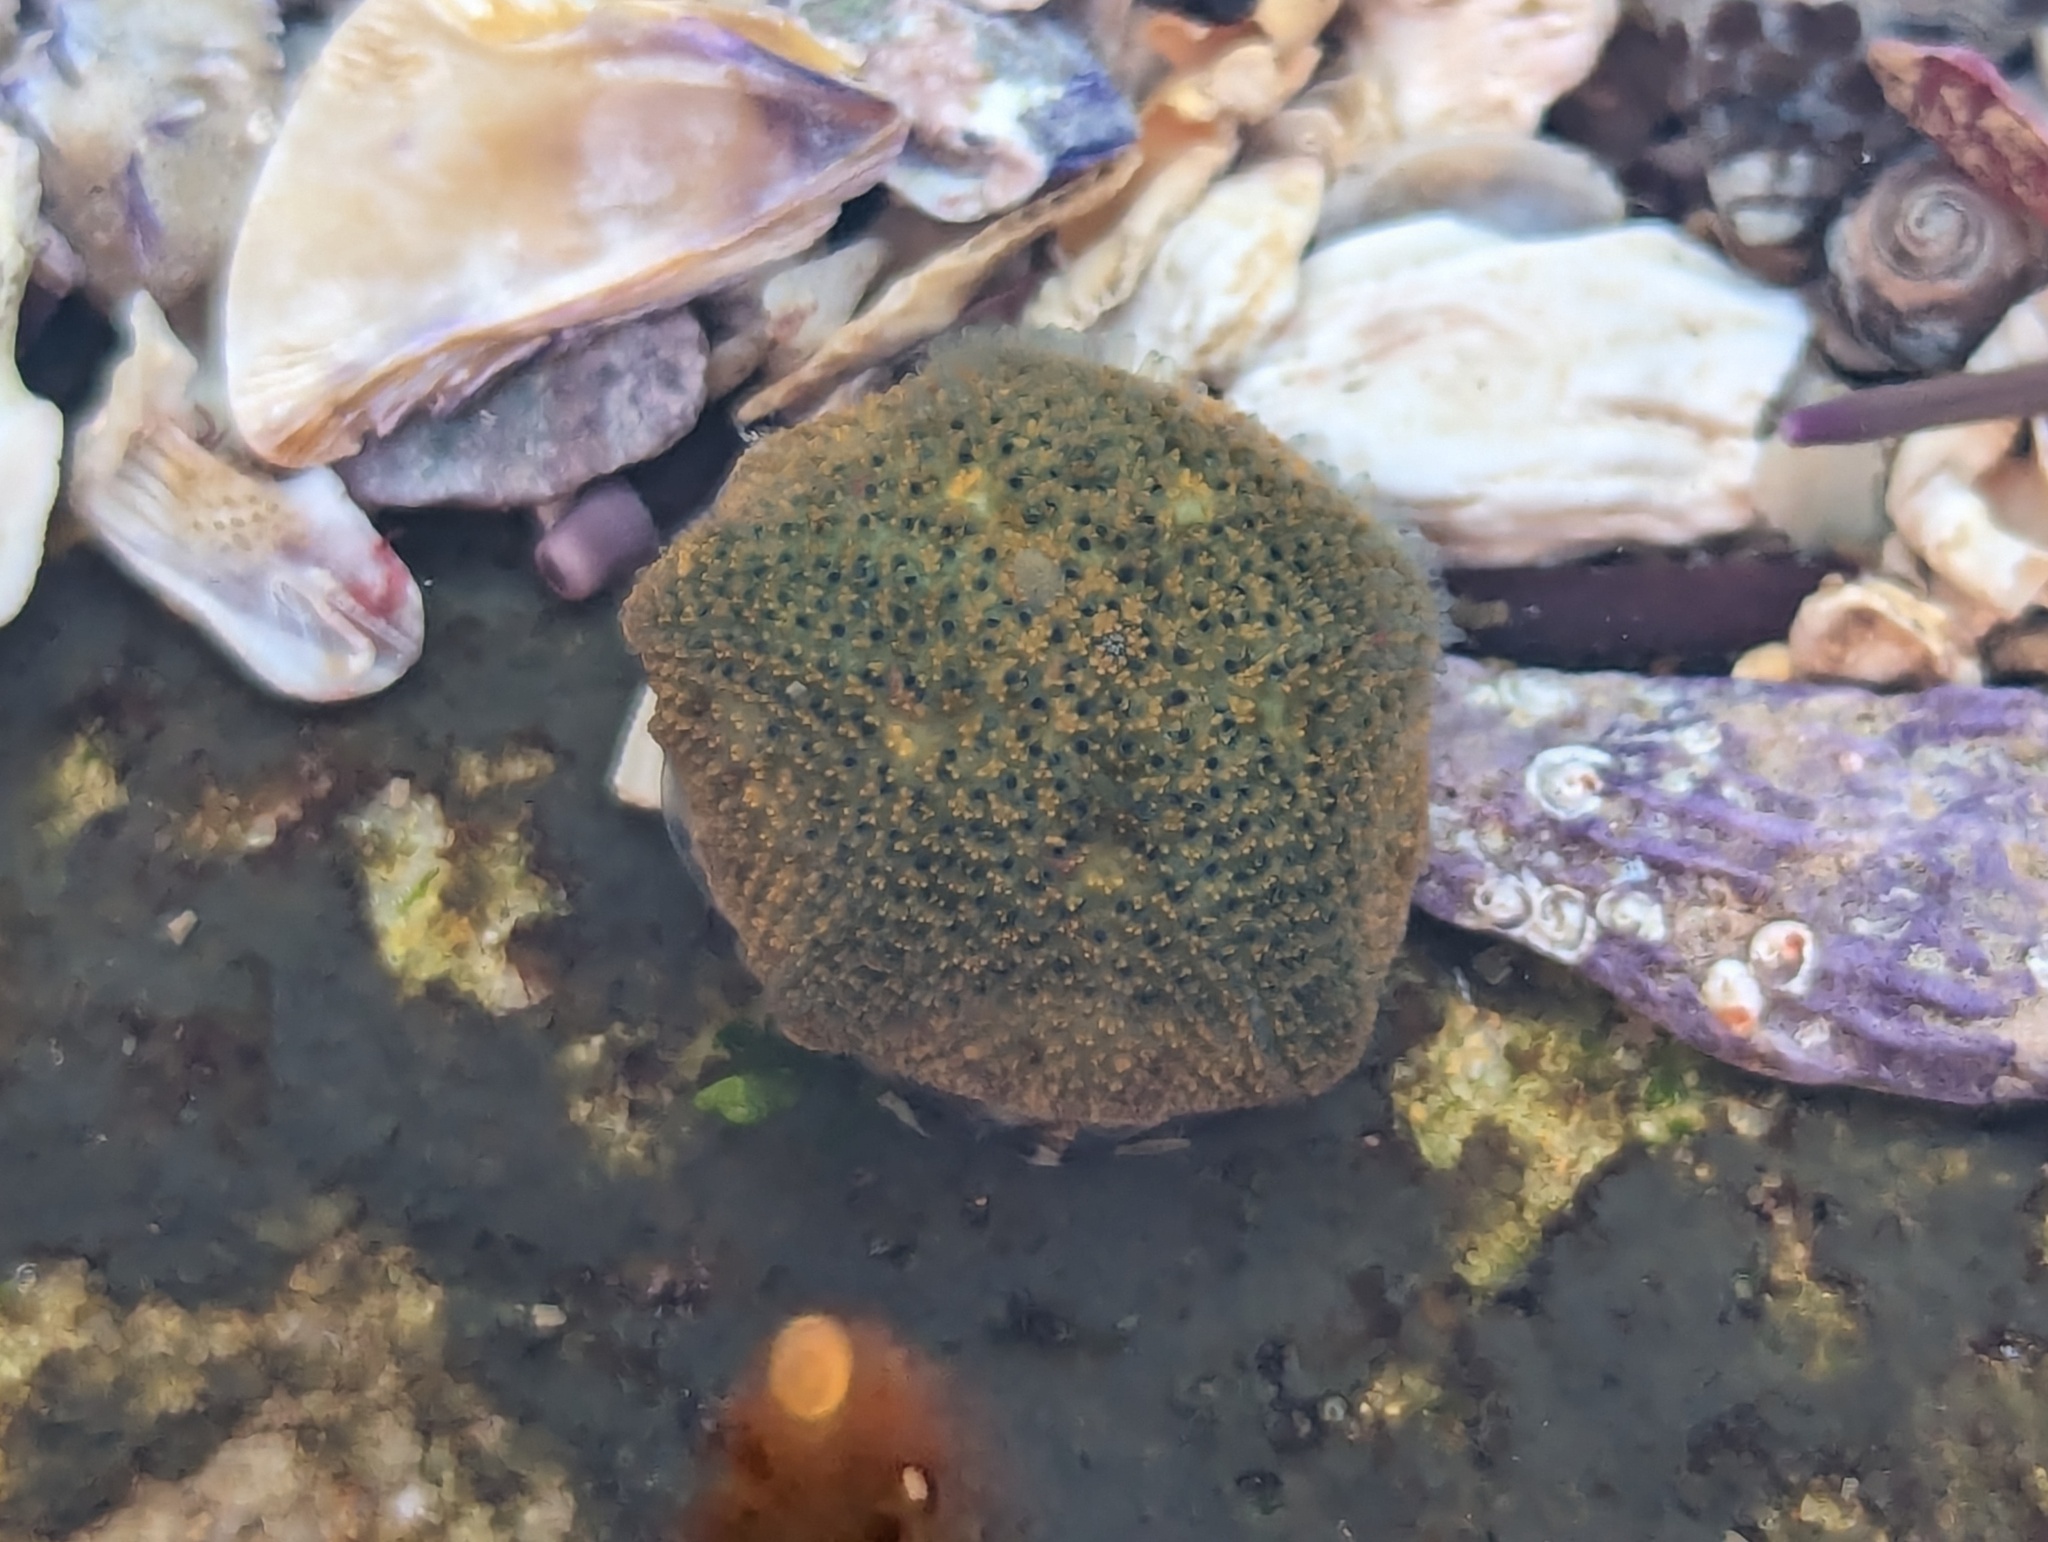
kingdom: Animalia
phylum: Echinodermata
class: Asteroidea
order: Valvatida
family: Asterinidae
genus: Parvulastra
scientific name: Parvulastra exigua
